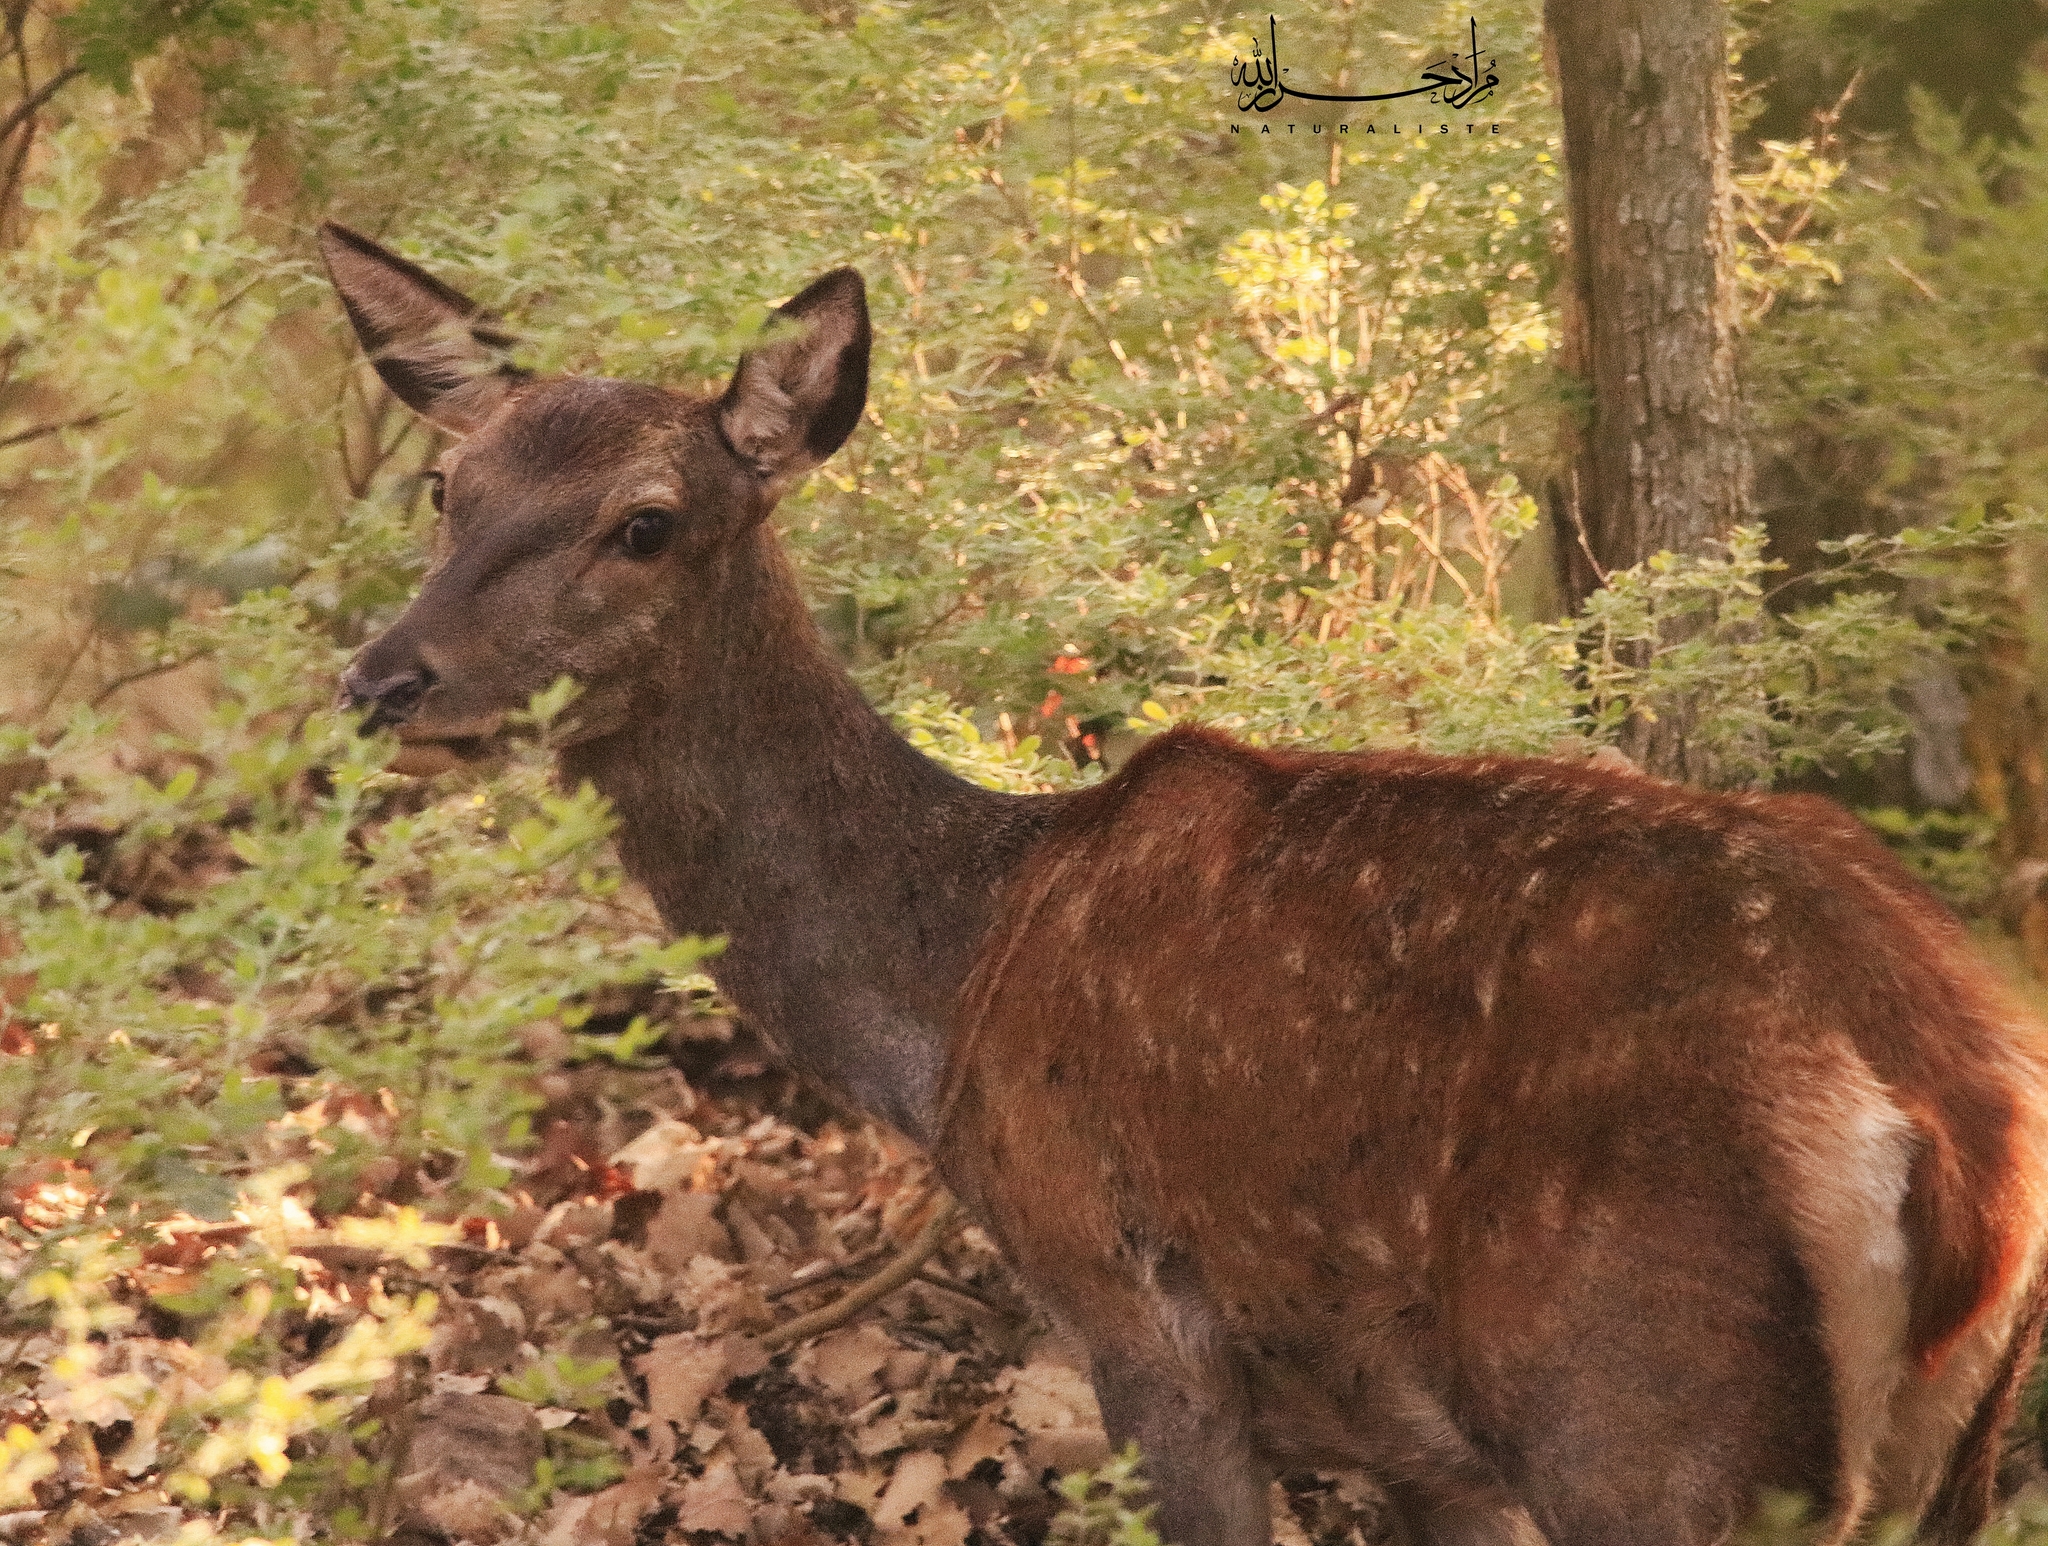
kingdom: Animalia
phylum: Chordata
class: Mammalia
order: Artiodactyla
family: Cervidae
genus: Cervus
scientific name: Cervus elaphus
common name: Red deer
